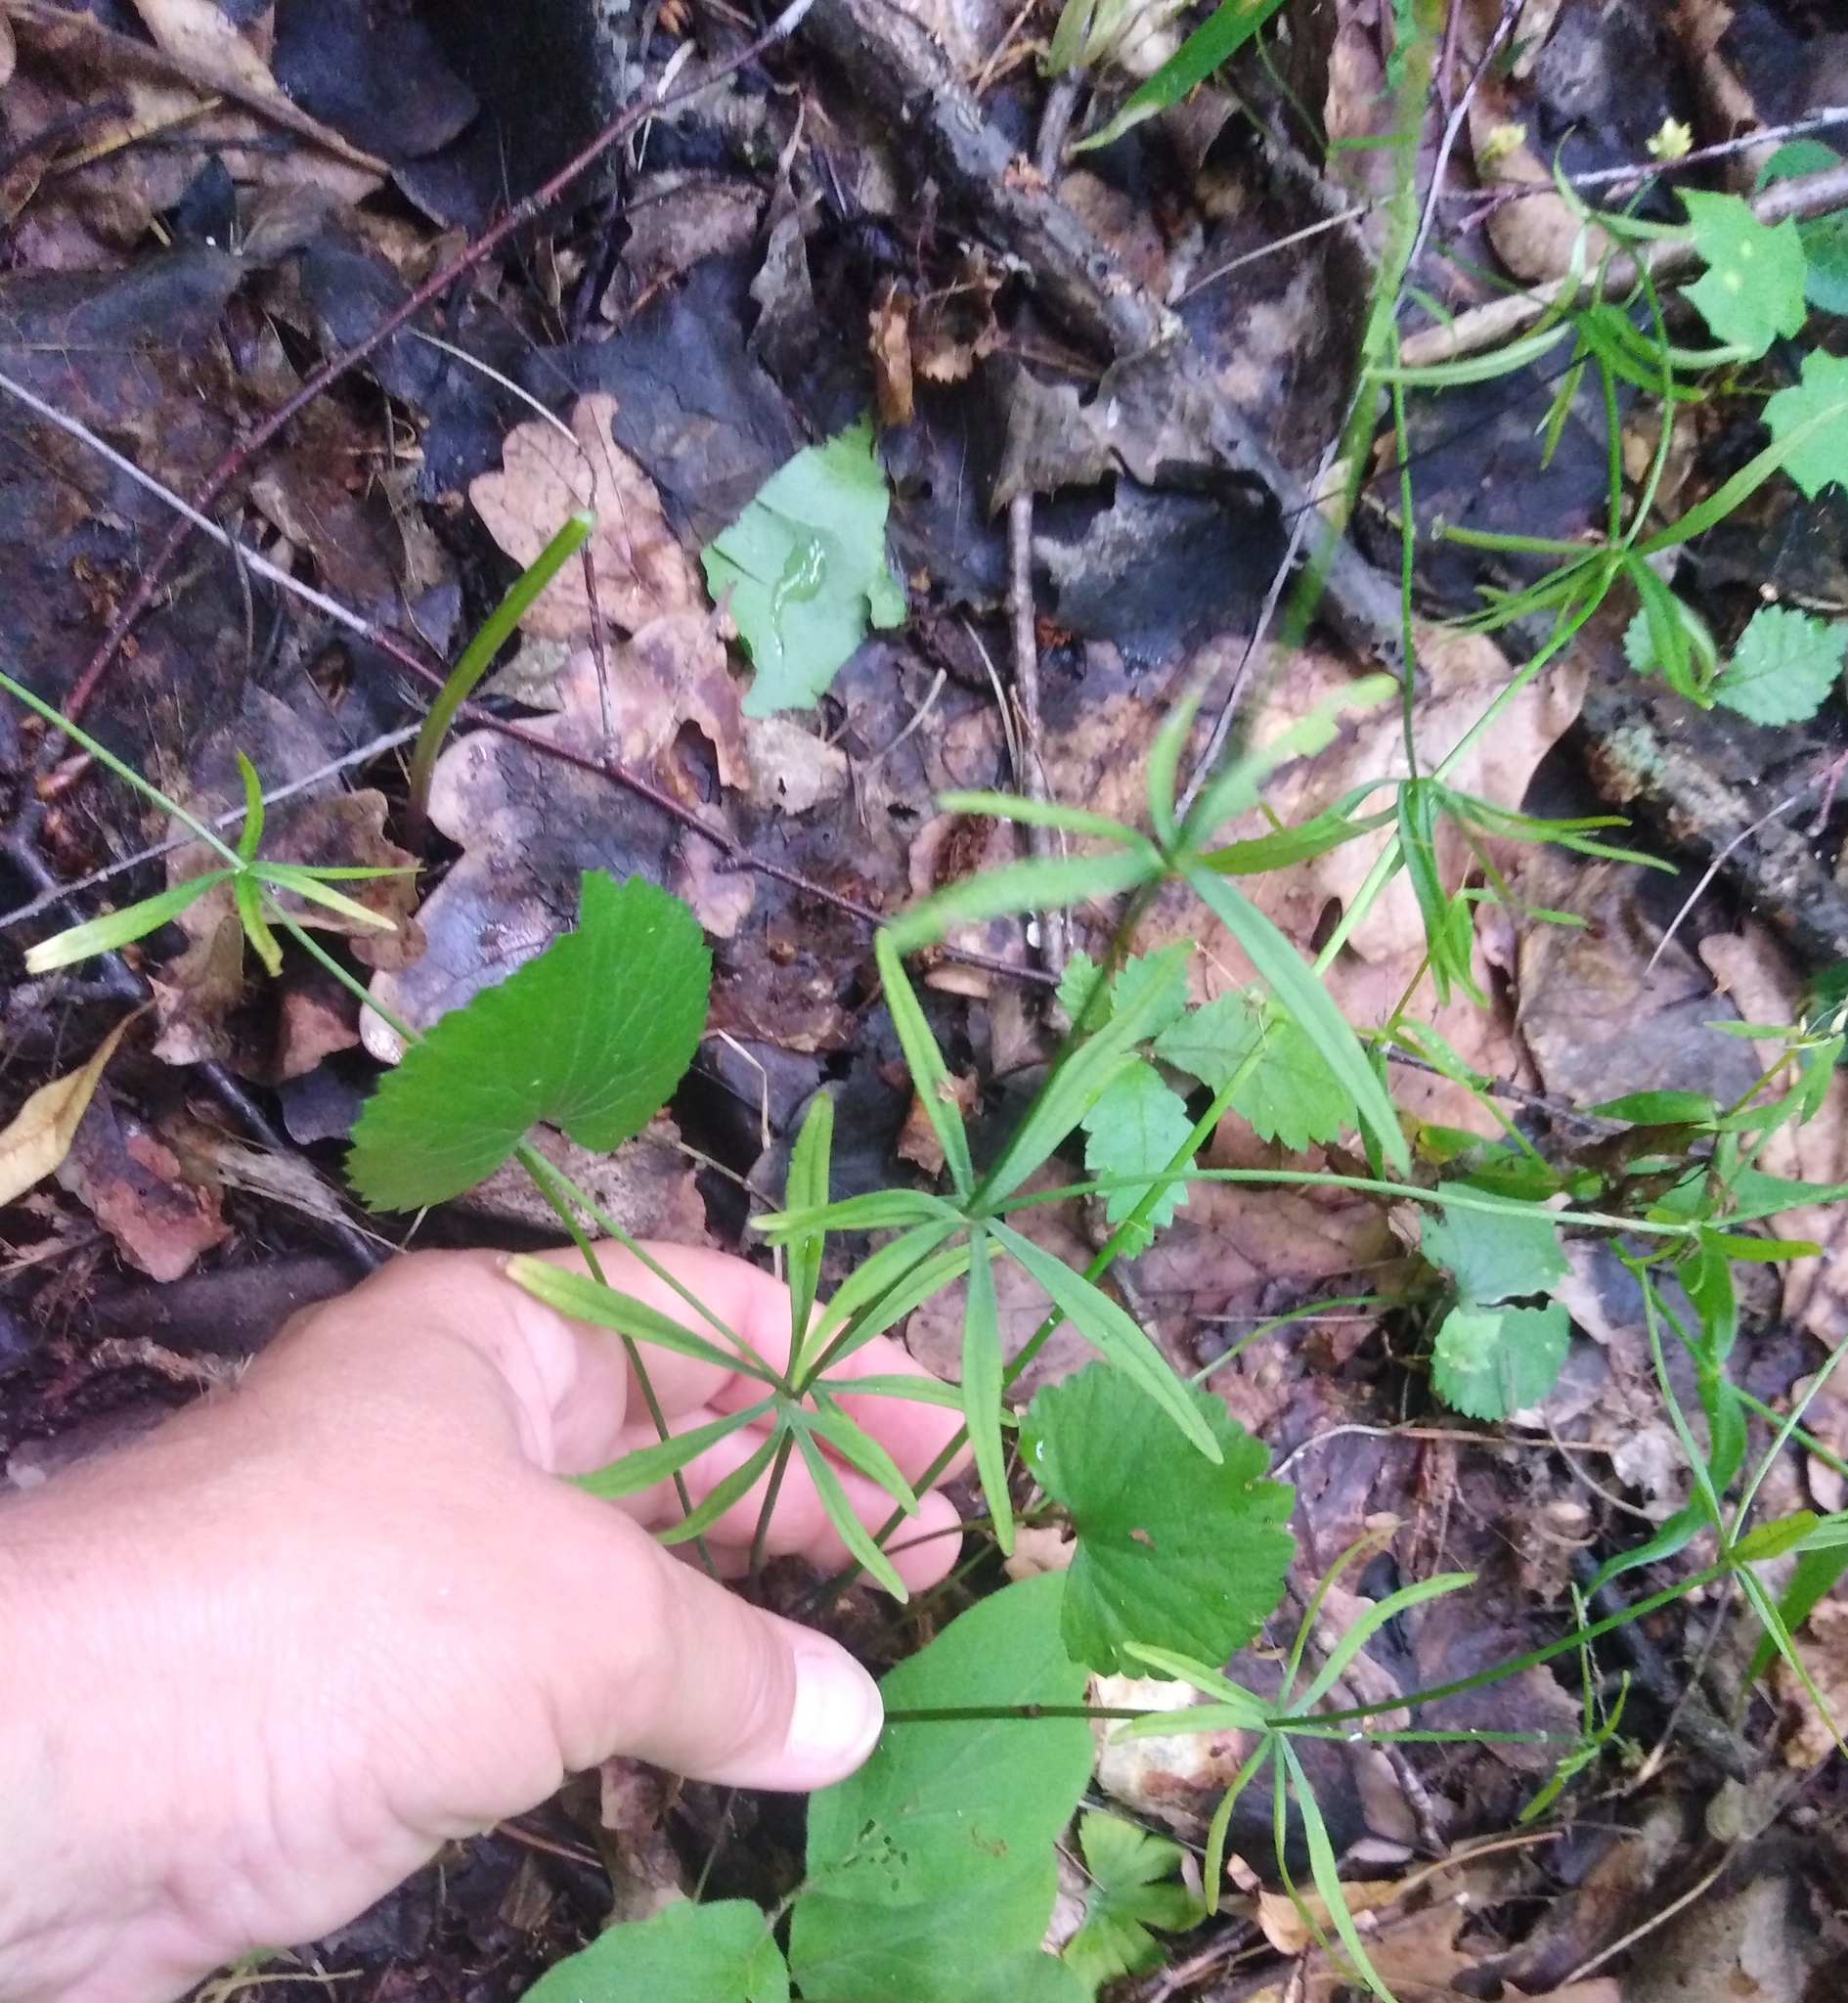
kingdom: Plantae
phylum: Tracheophyta
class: Magnoliopsida
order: Ranunculales
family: Ranunculaceae
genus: Ranunculus
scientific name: Ranunculus auricomus
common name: Goldilocks buttercup
